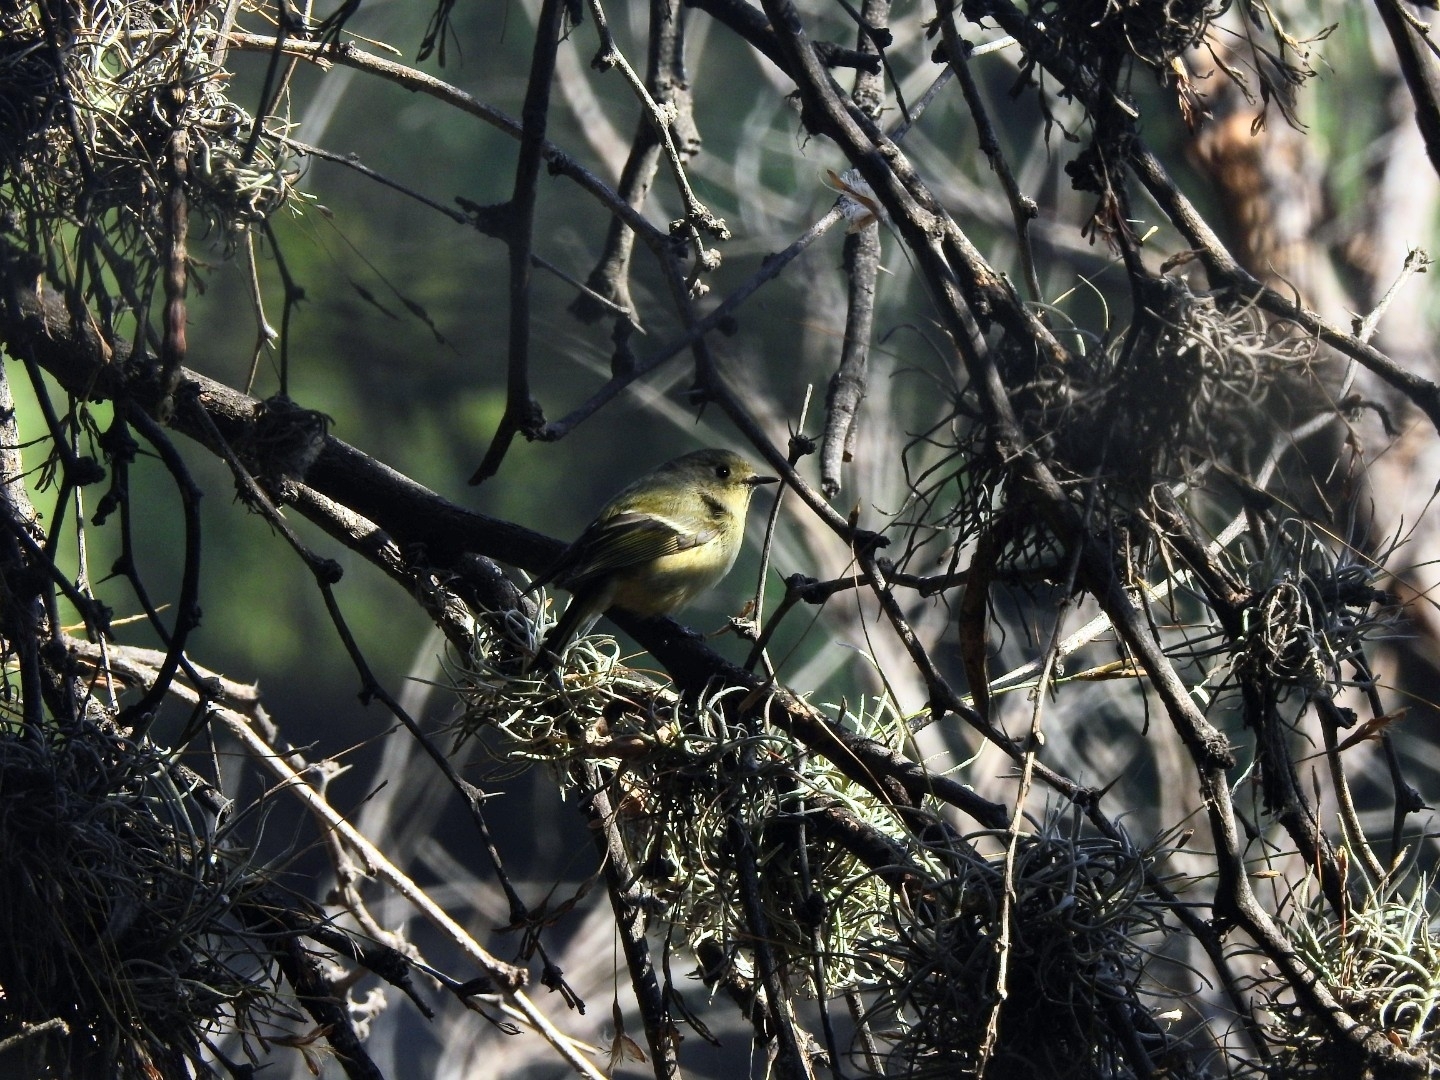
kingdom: Animalia
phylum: Chordata
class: Aves
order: Passeriformes
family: Regulidae
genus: Regulus
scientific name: Regulus calendula
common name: Ruby-crowned kinglet
